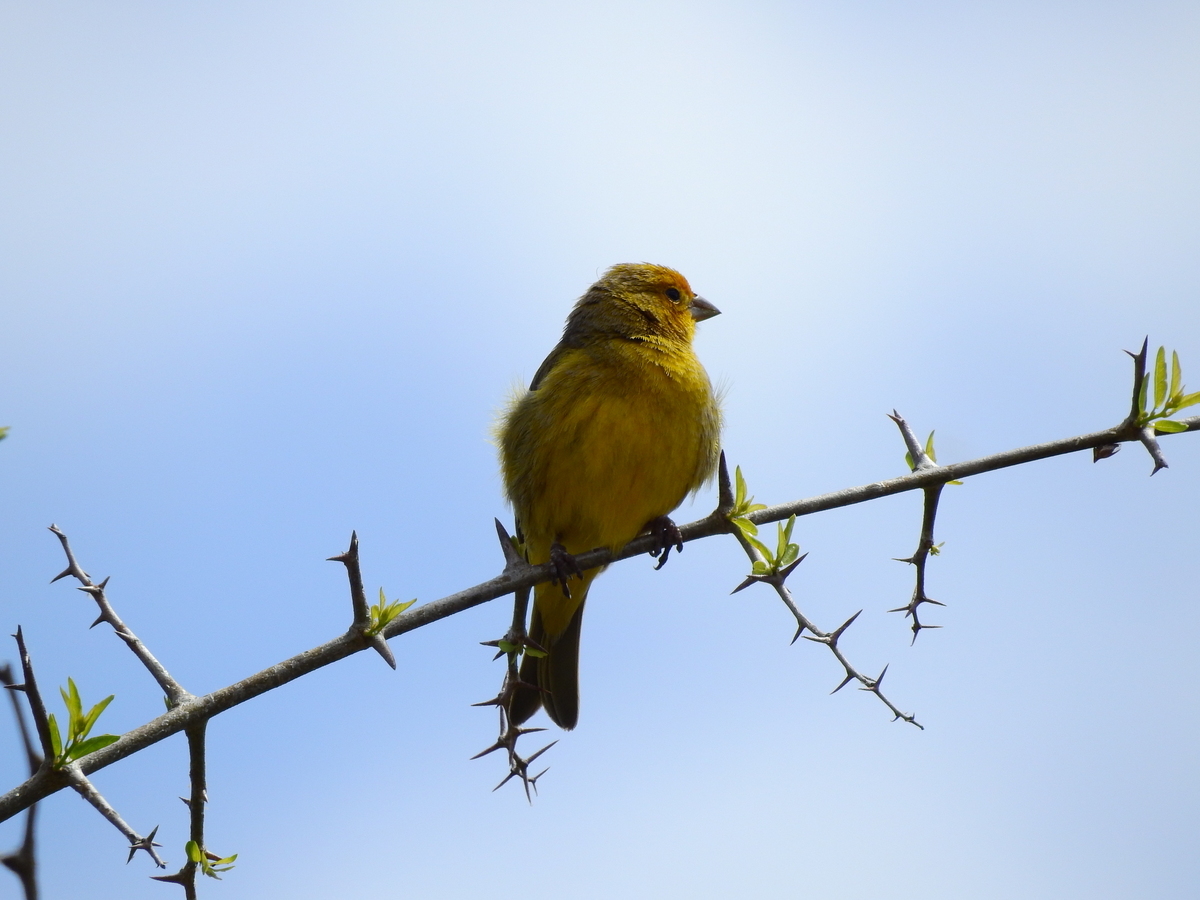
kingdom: Animalia
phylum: Chordata
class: Aves
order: Passeriformes
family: Thraupidae
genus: Sicalis
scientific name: Sicalis flaveola
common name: Saffron finch
